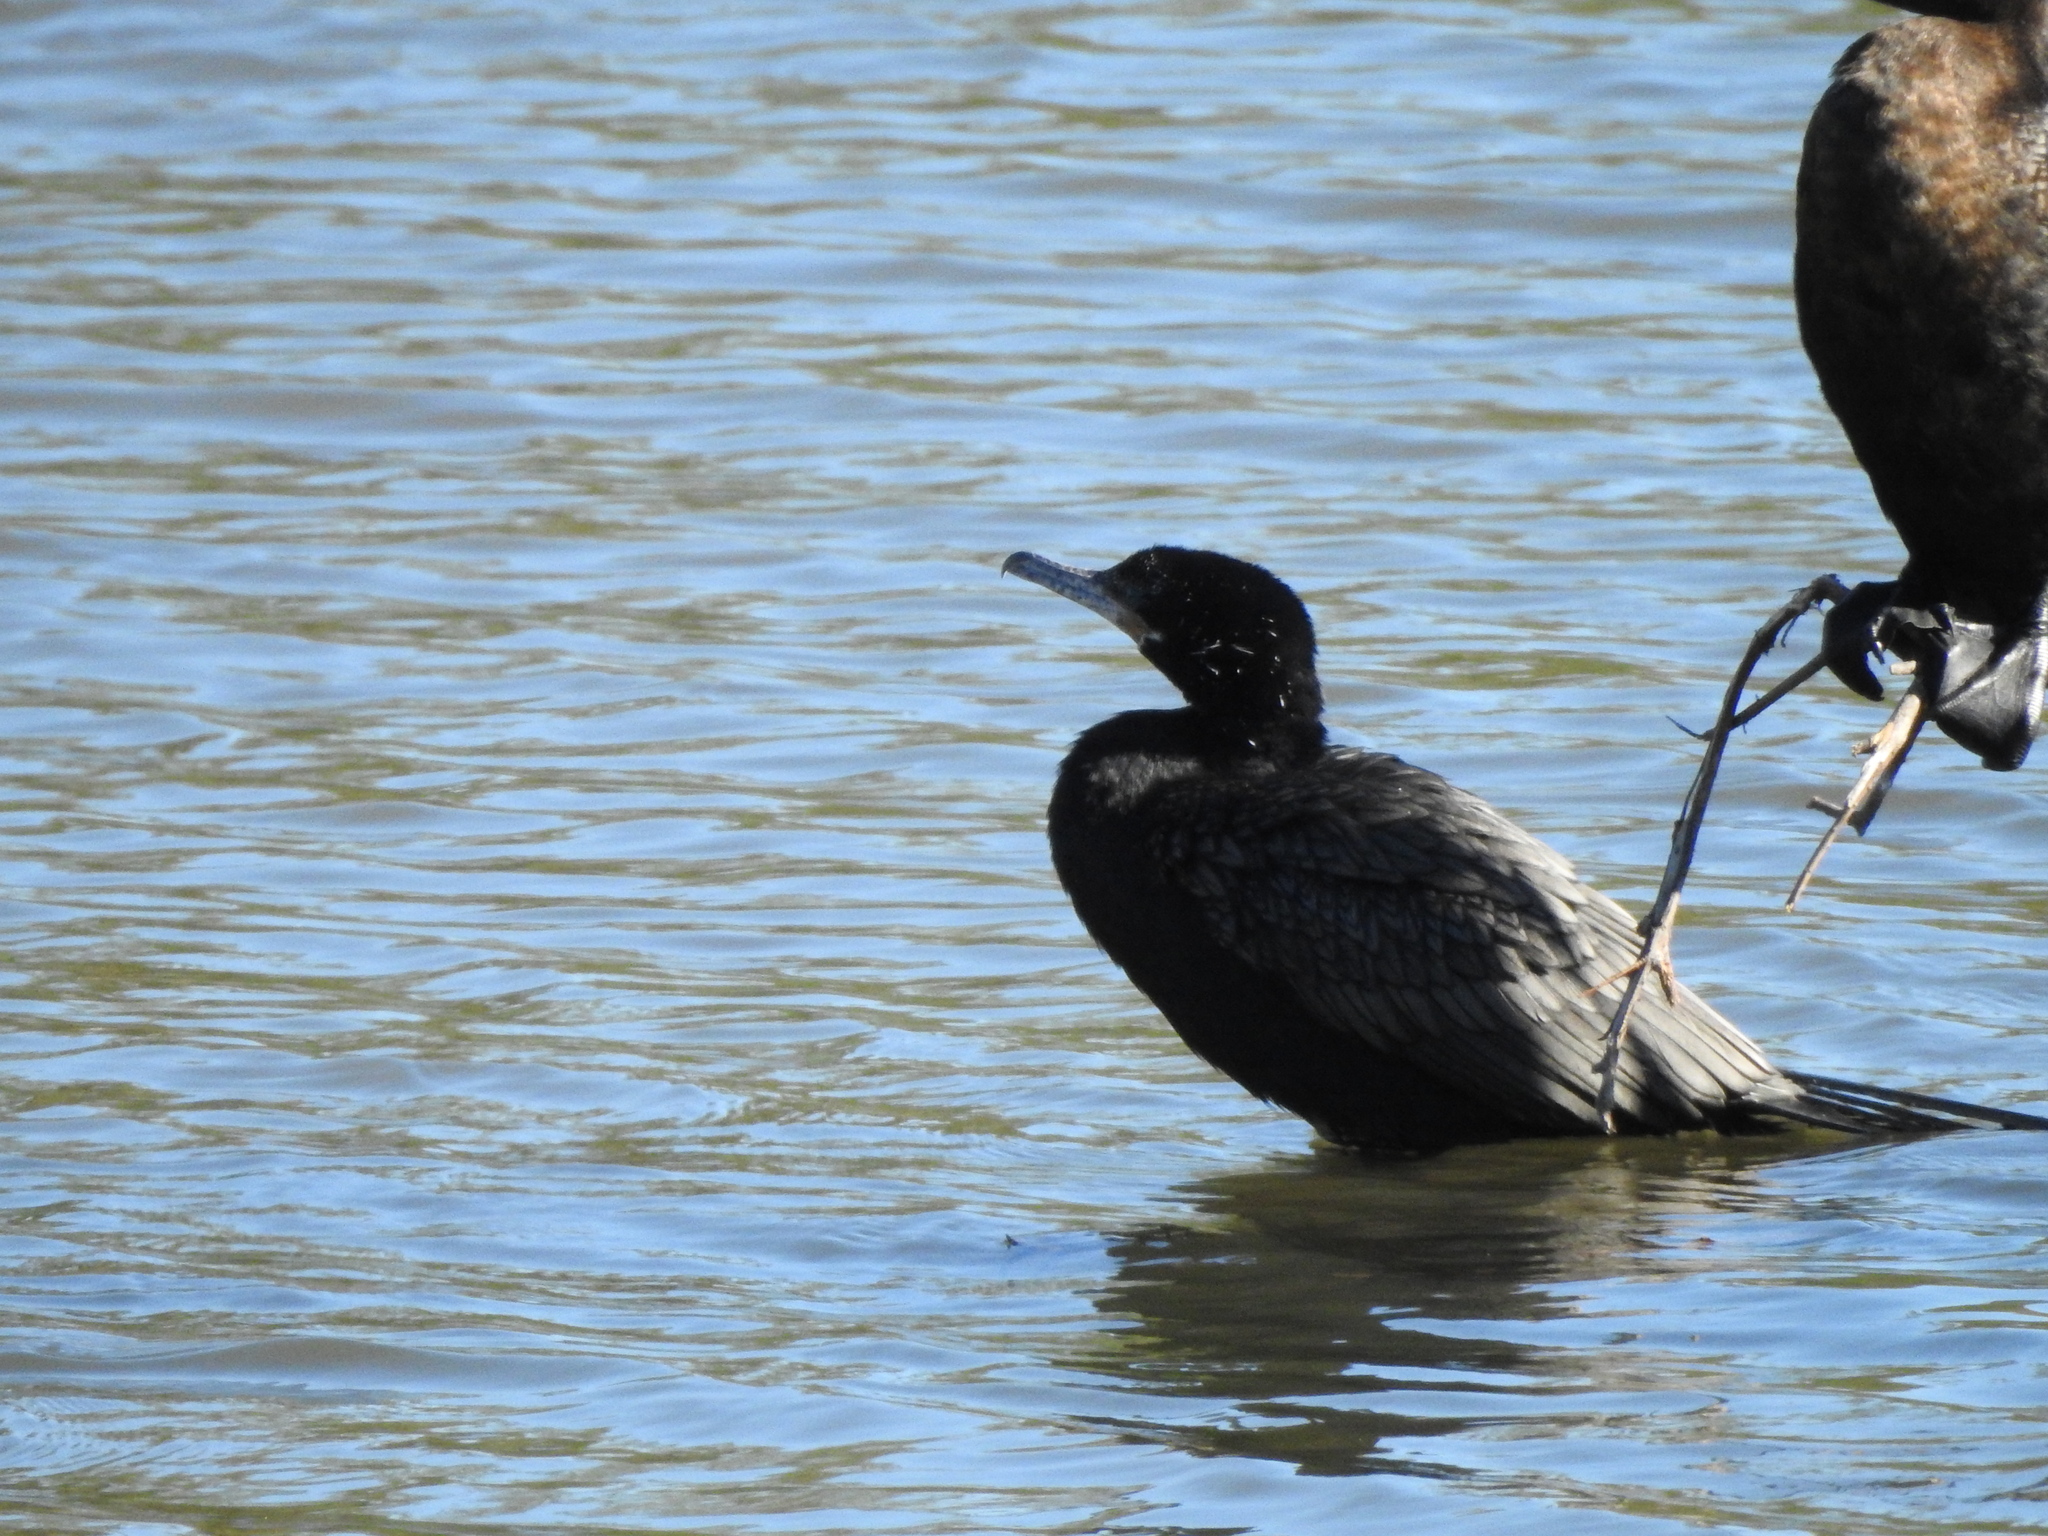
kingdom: Animalia
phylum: Chordata
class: Aves
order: Suliformes
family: Phalacrocoracidae
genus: Phalacrocorax
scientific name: Phalacrocorax brasilianus
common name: Neotropic cormorant
